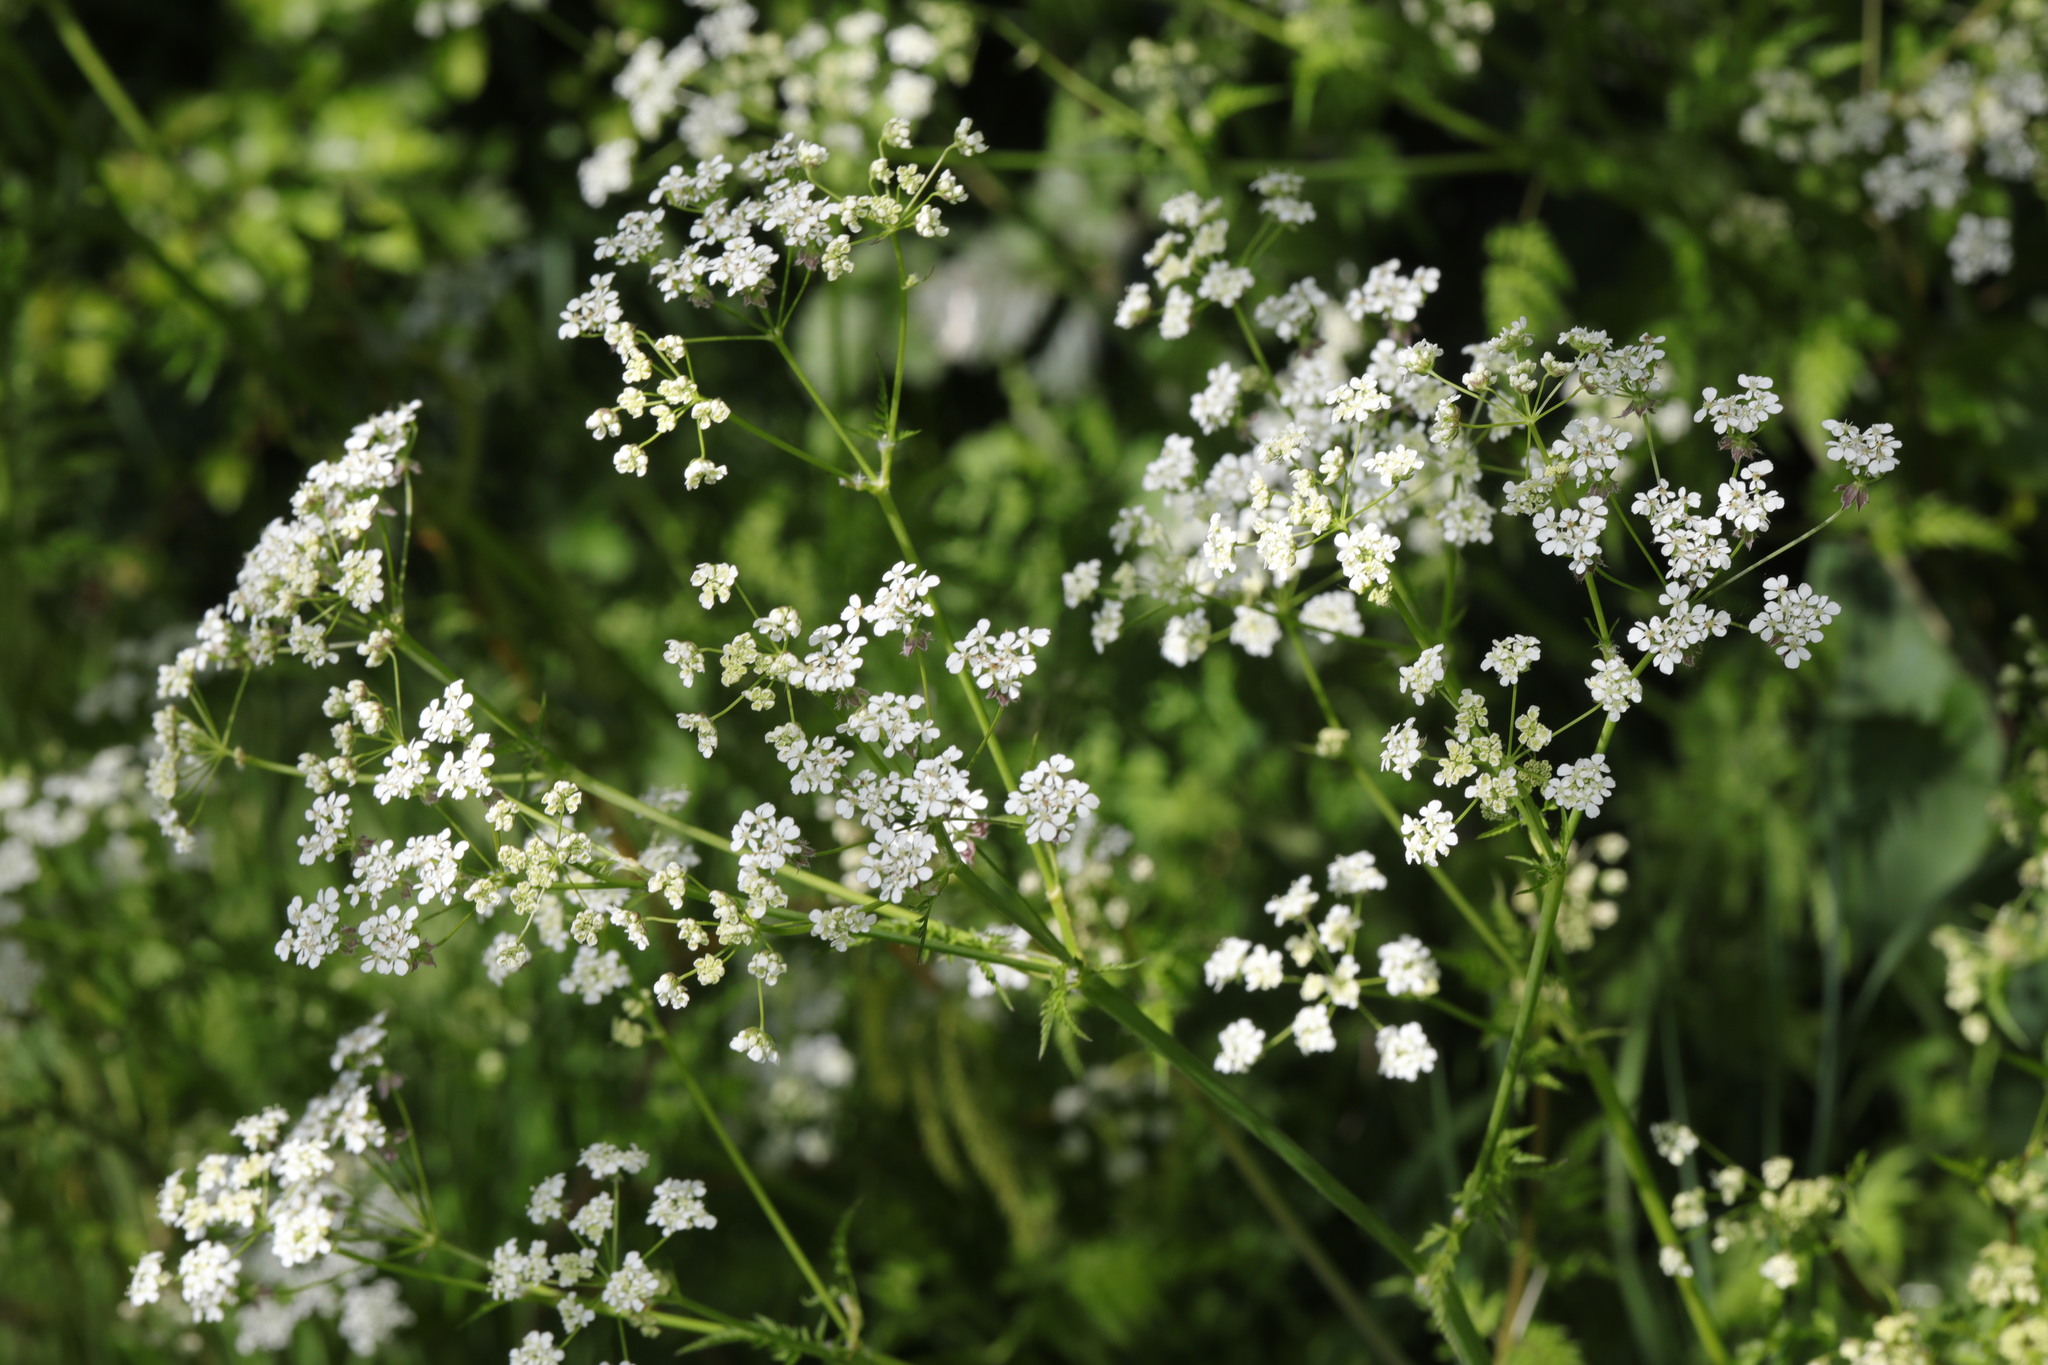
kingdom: Plantae
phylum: Tracheophyta
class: Magnoliopsida
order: Apiales
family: Apiaceae
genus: Anthriscus
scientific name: Anthriscus sylvestris
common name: Cow parsley
